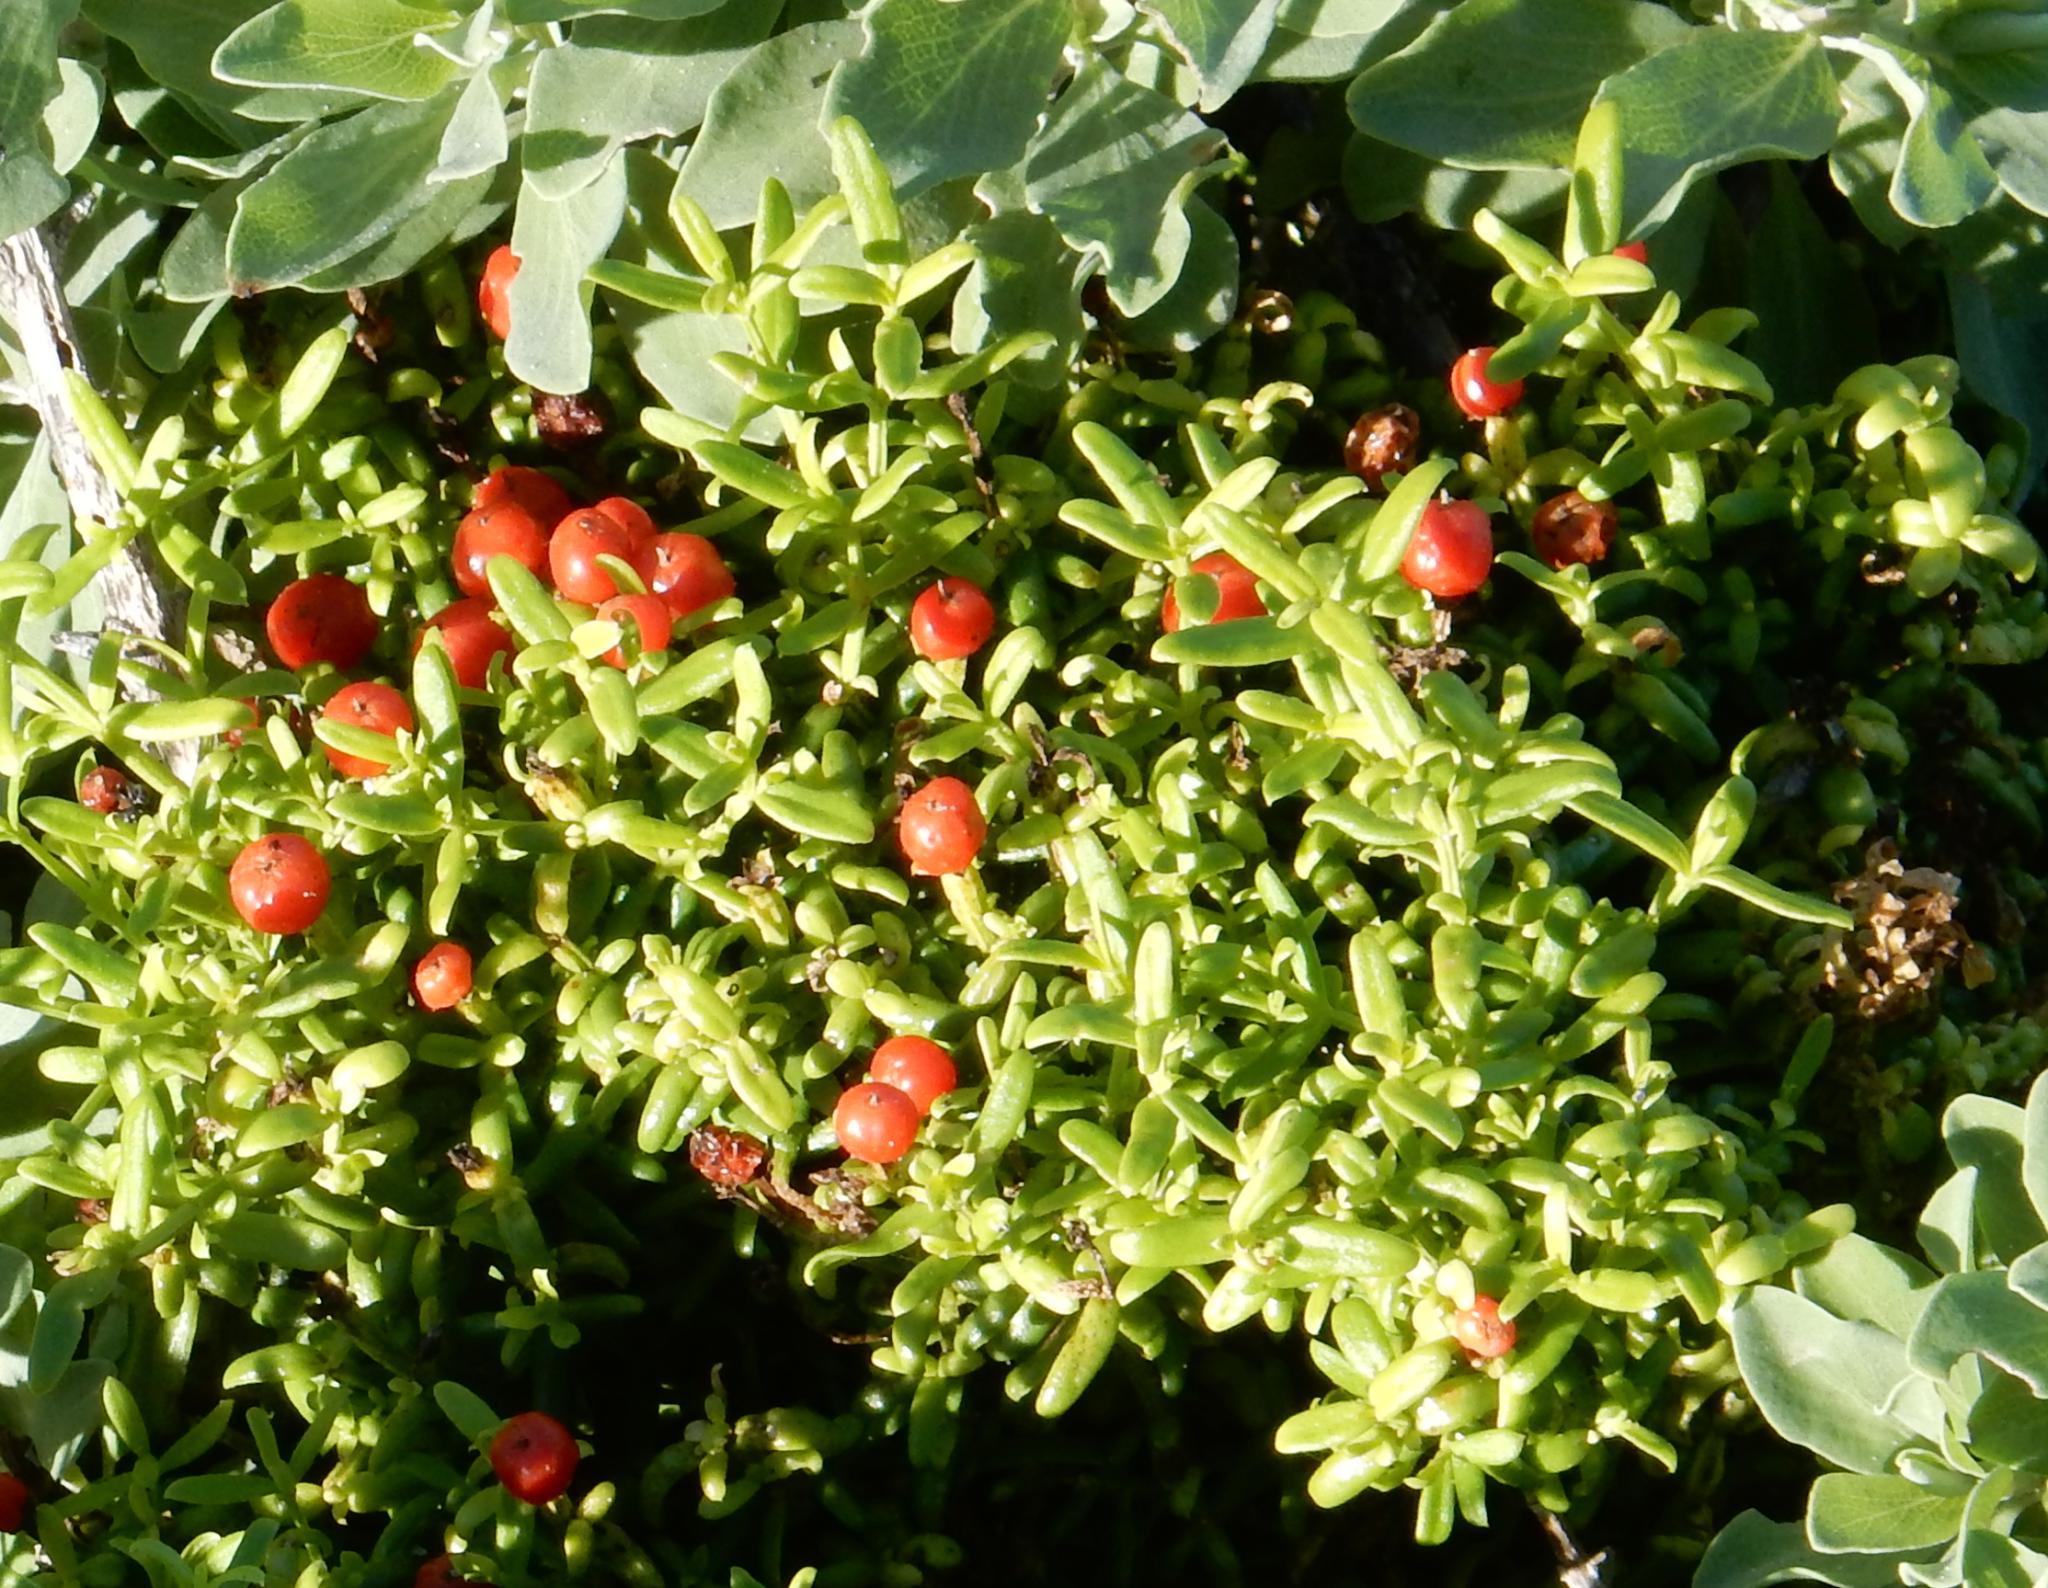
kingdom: Plantae
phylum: Tracheophyta
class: Magnoliopsida
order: Gentianales
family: Gentianaceae
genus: Chironia
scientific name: Chironia baccifera
